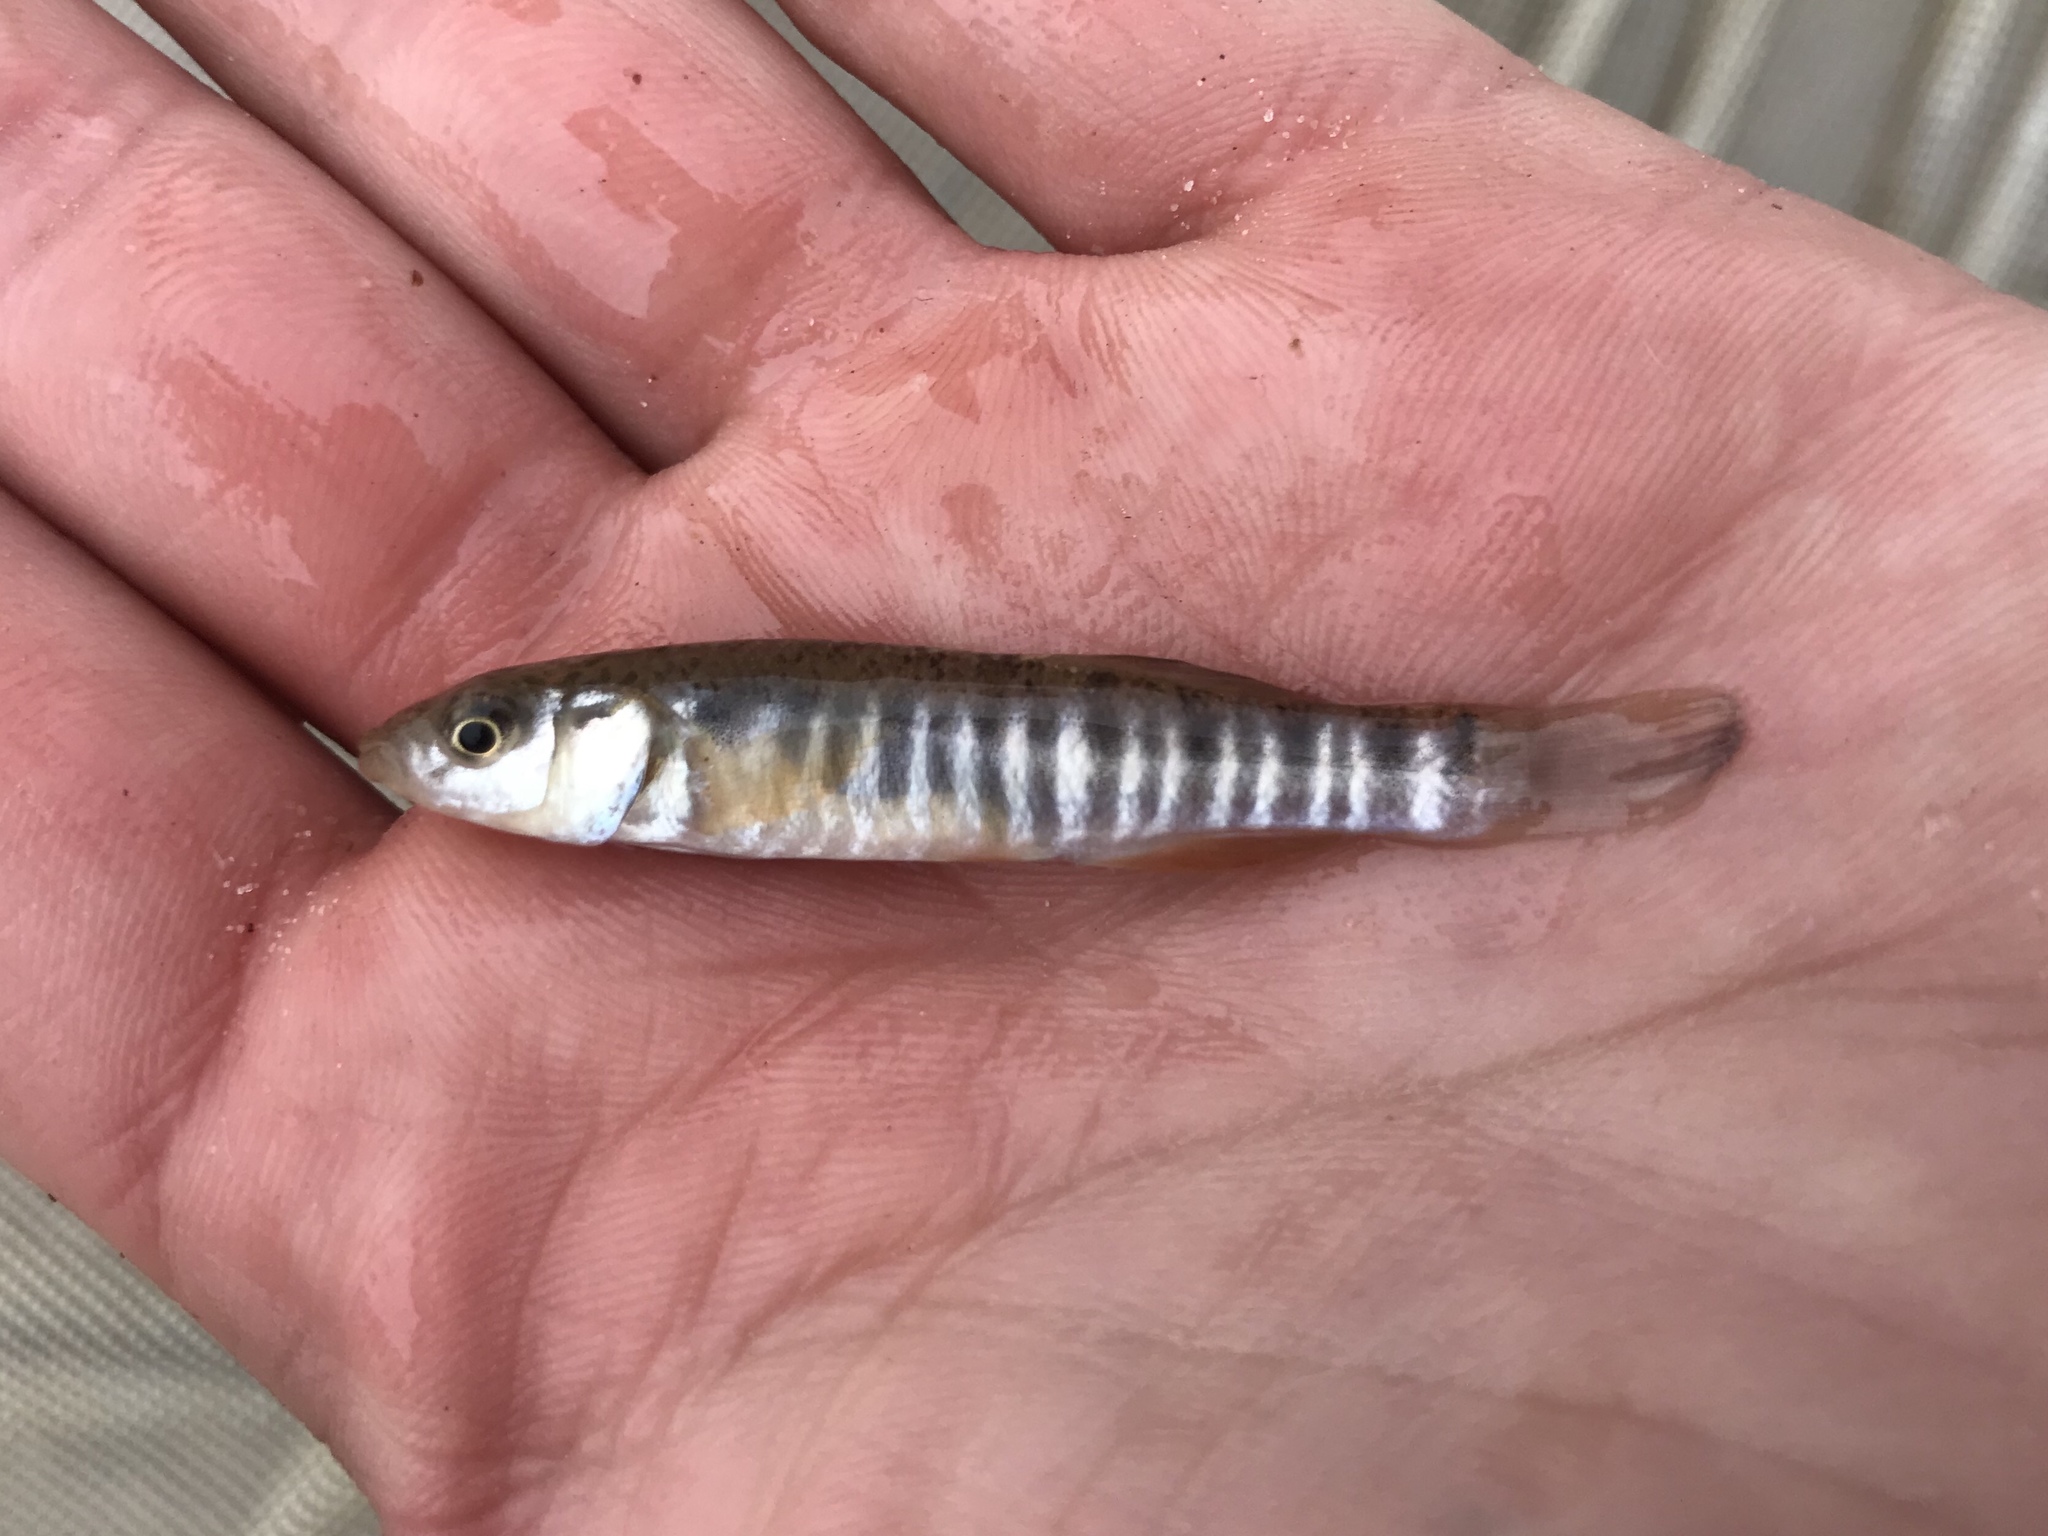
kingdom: Animalia
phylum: Chordata
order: Cyprinodontiformes
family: Fundulidae
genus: Fundulus
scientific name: Fundulus zebrinus
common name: Plains killifish
